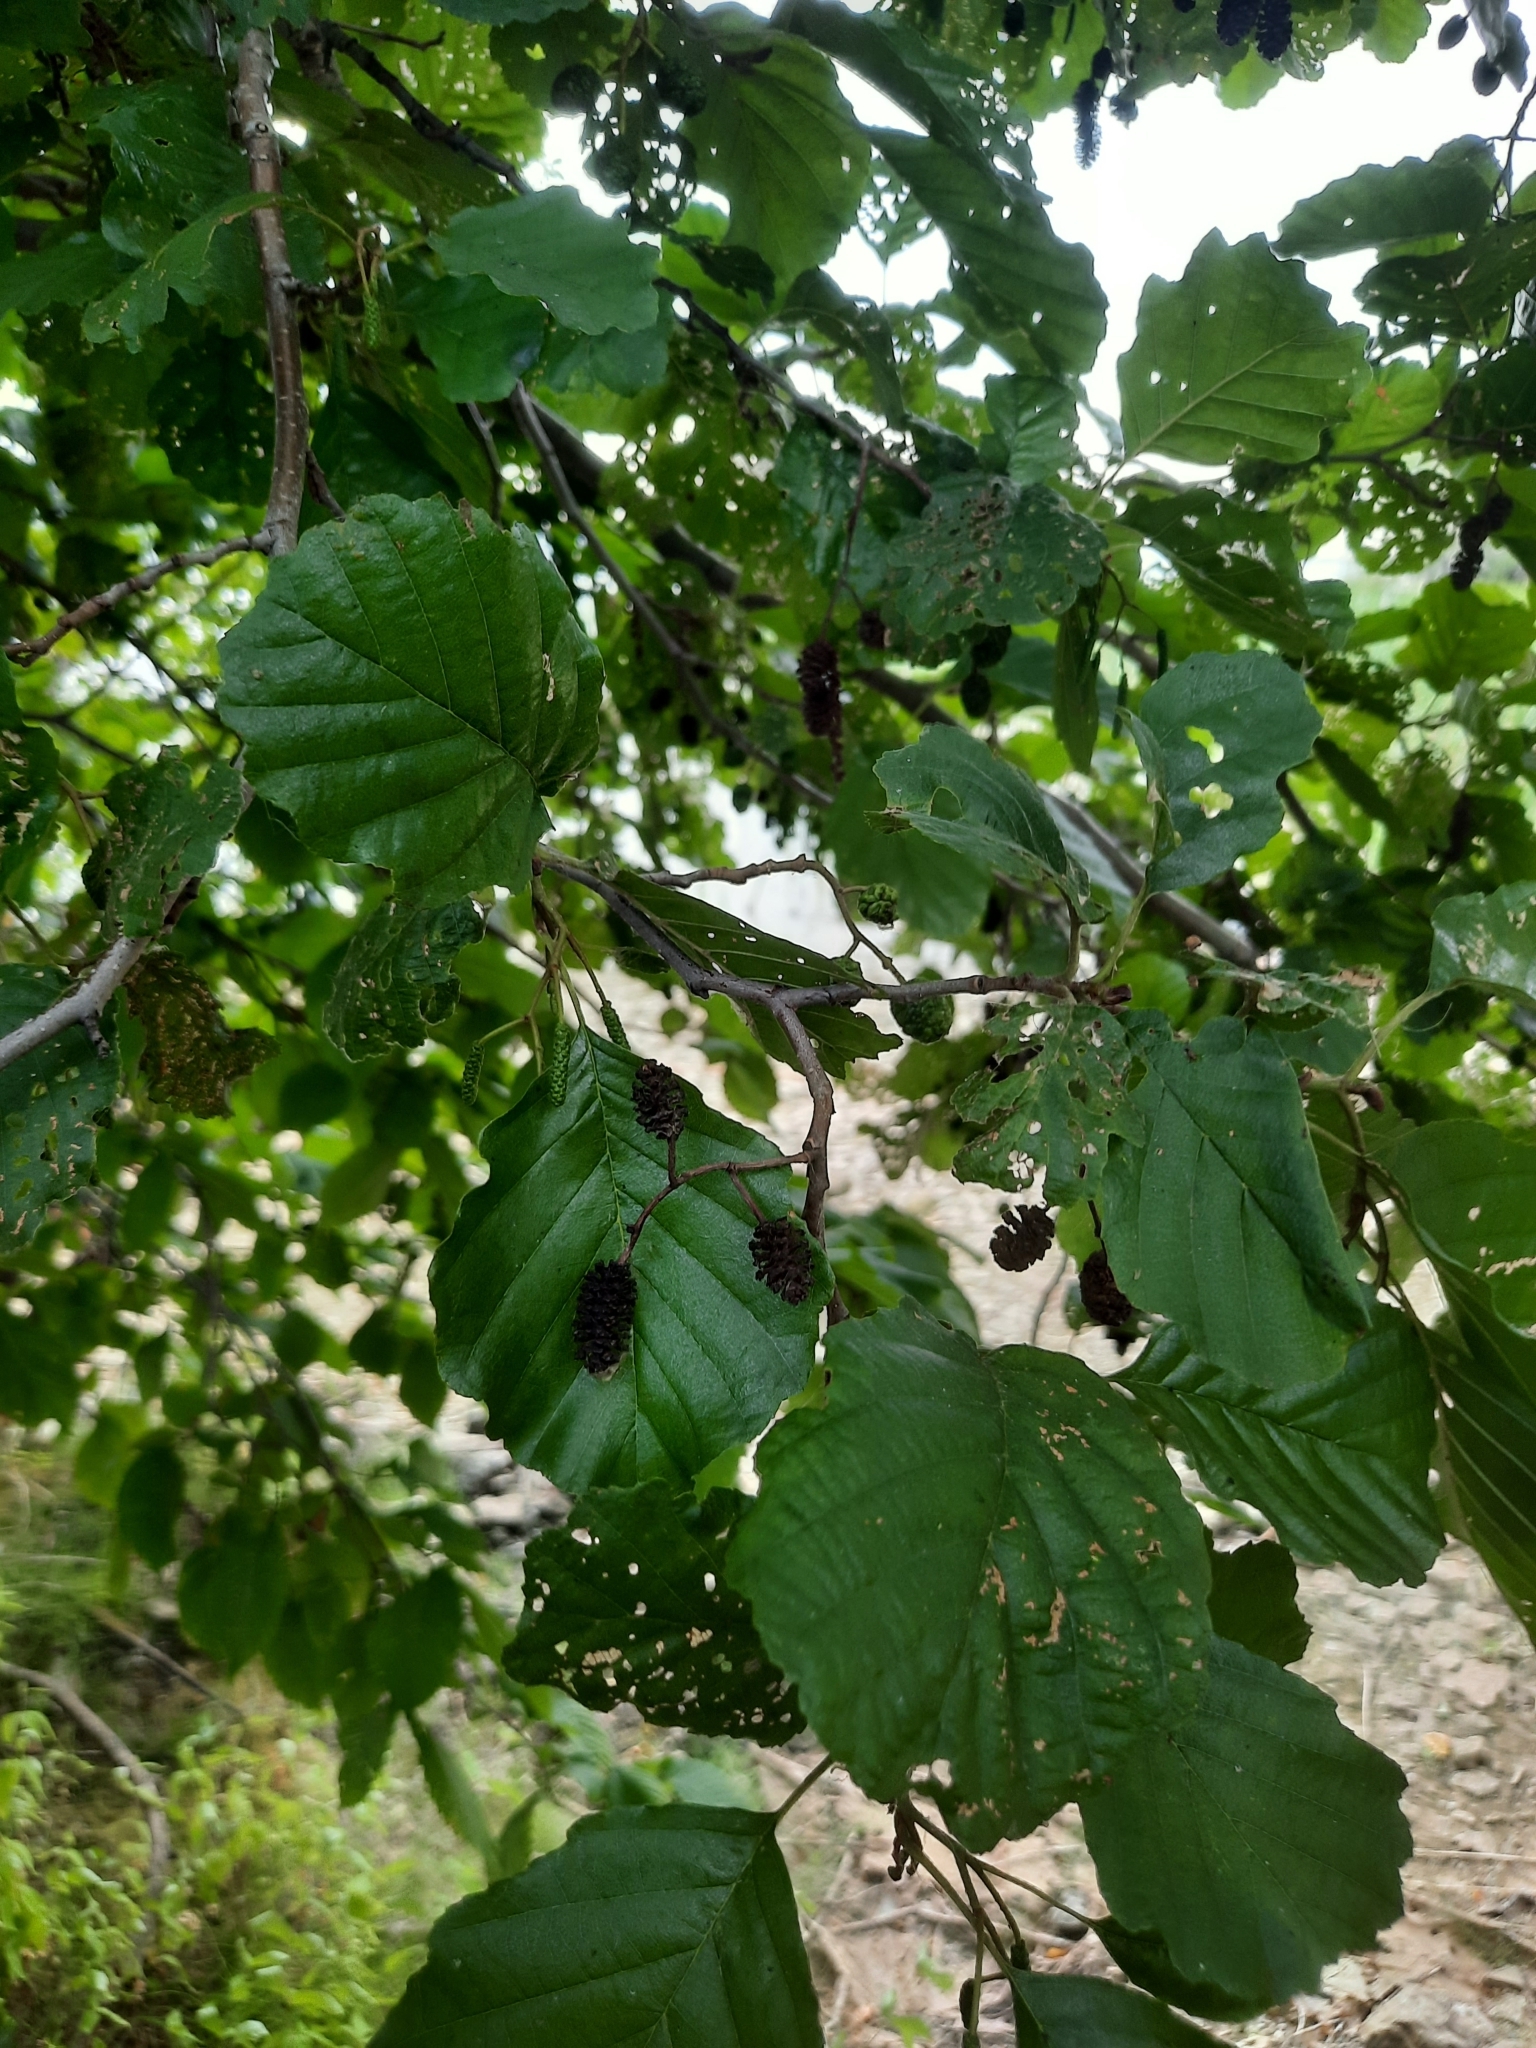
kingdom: Plantae
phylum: Tracheophyta
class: Magnoliopsida
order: Fagales
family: Betulaceae
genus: Alnus
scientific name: Alnus glutinosa
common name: Black alder
